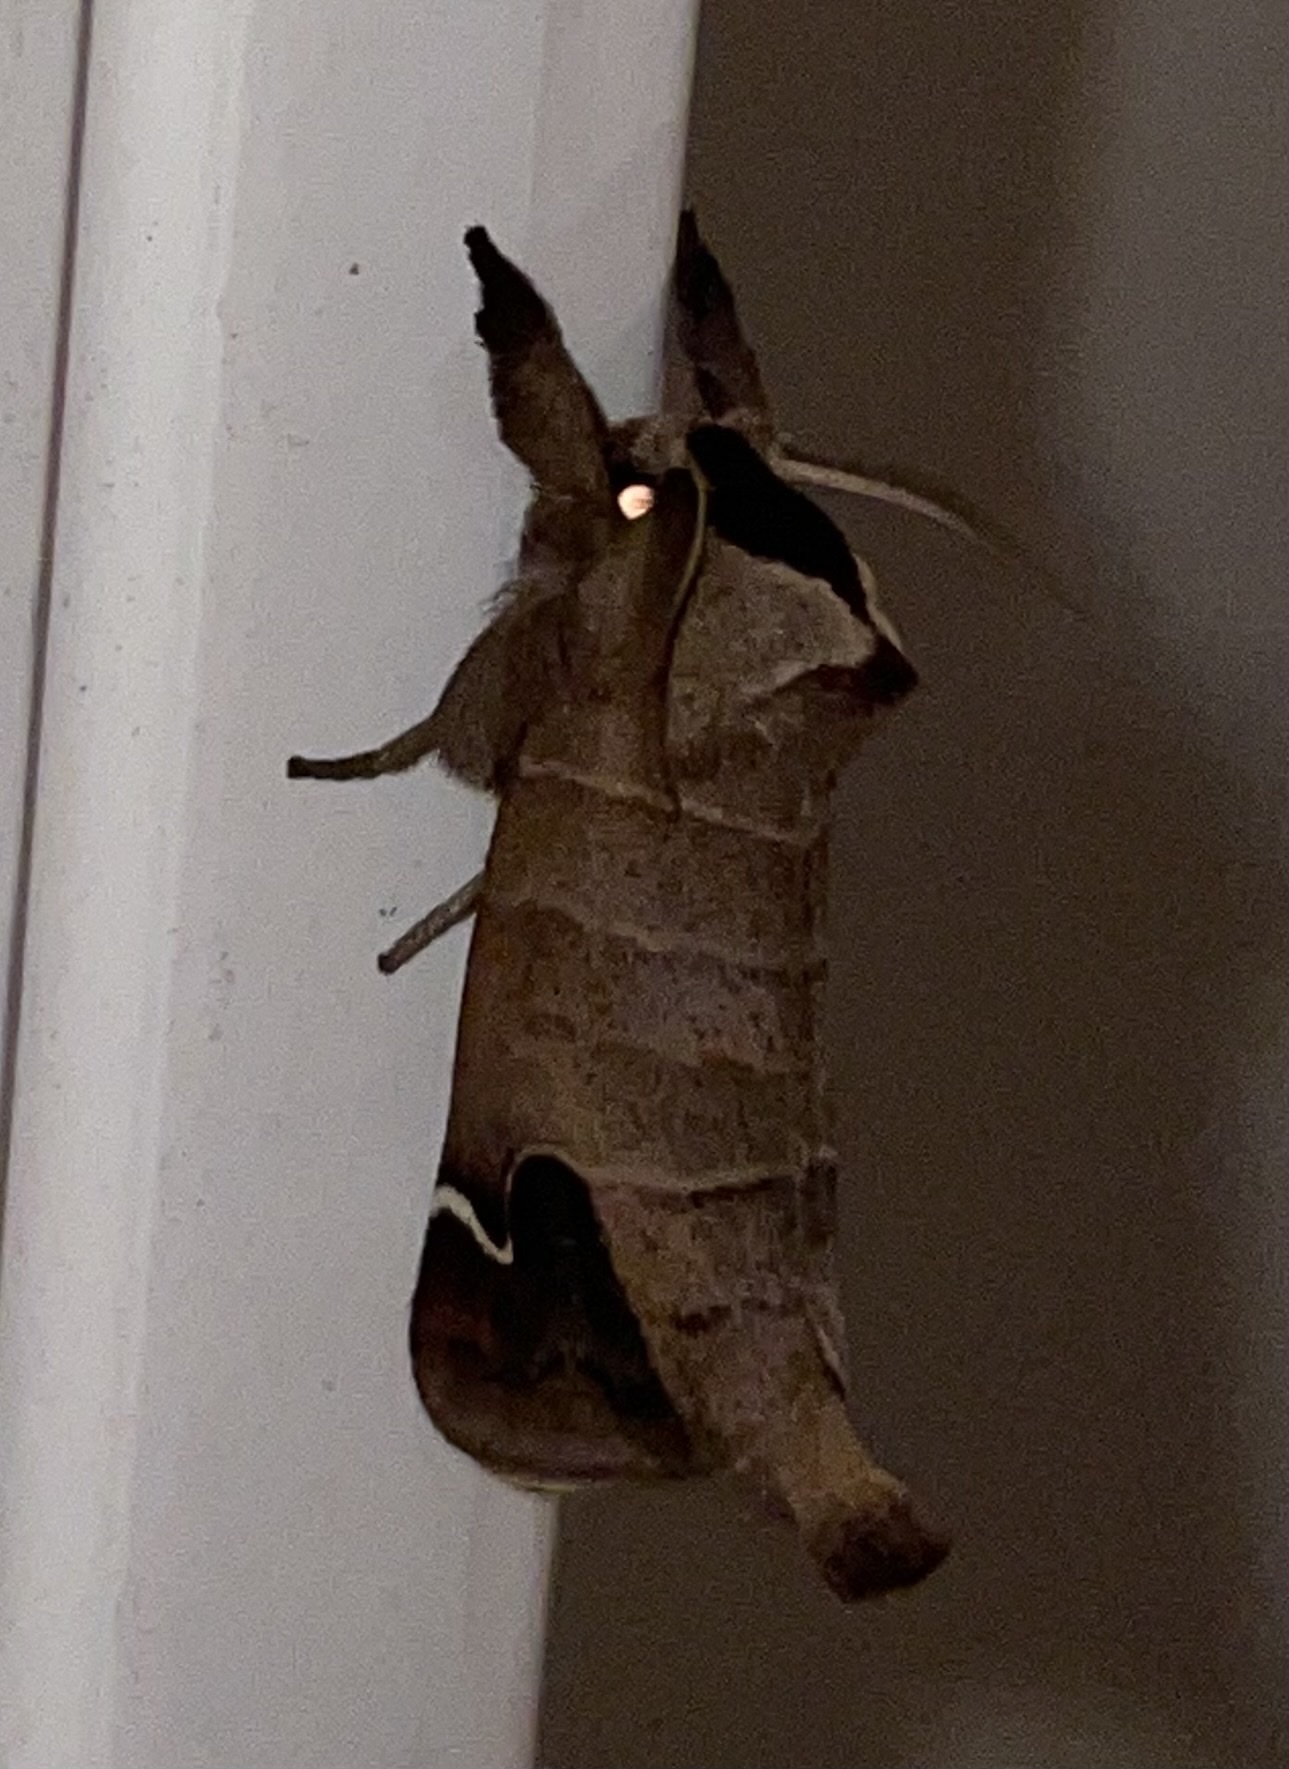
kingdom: Animalia
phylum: Arthropoda
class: Insecta
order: Lepidoptera
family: Notodontidae
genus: Clostera
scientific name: Clostera albosigma
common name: Sigmoid prominent
